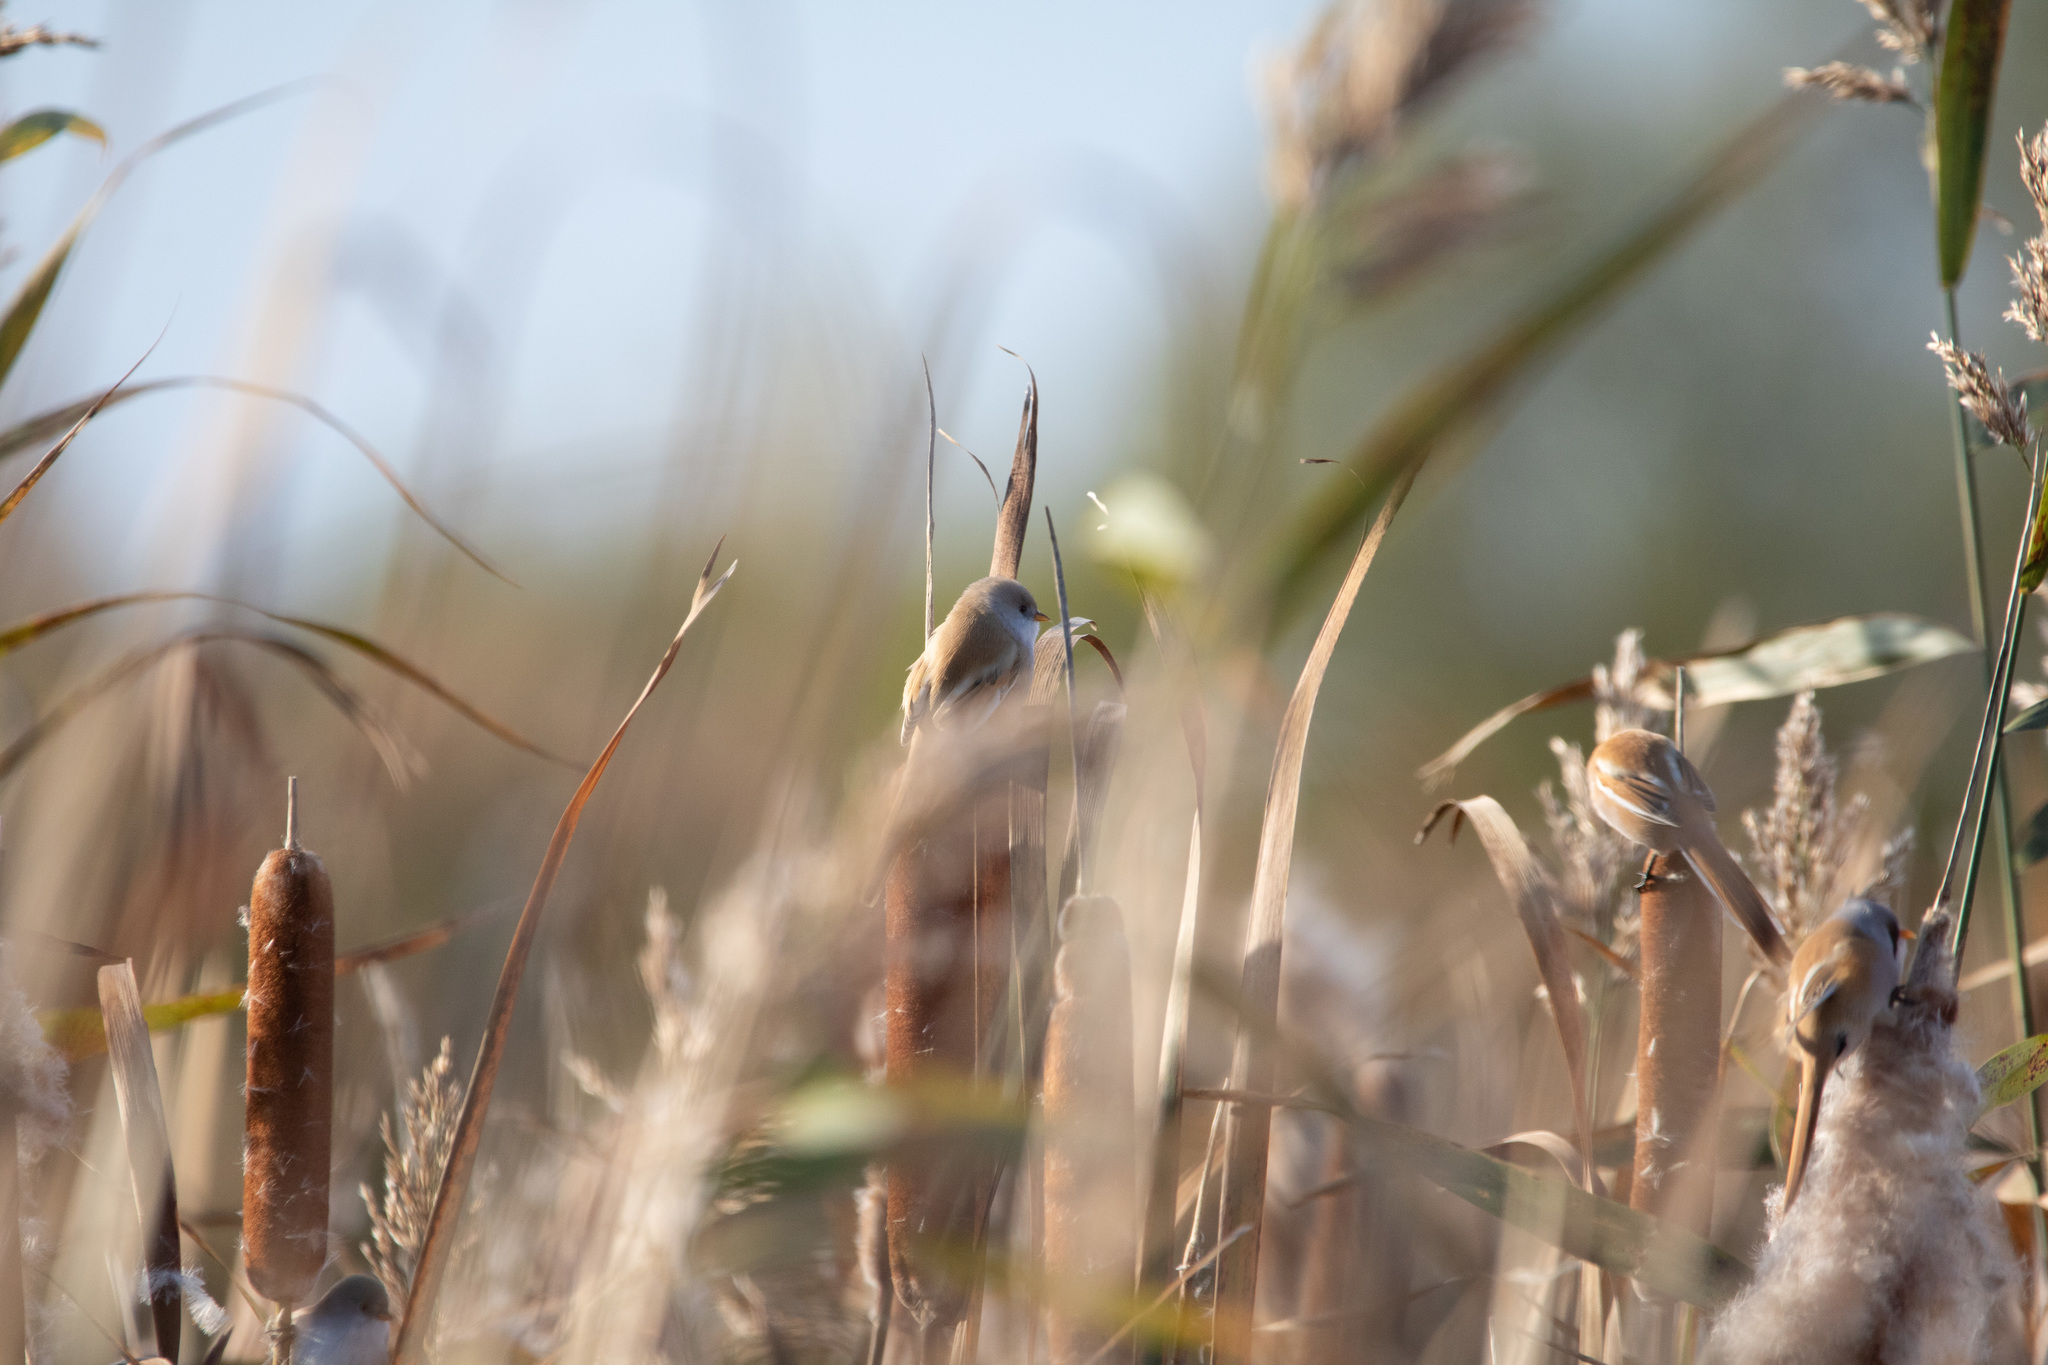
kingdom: Animalia
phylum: Chordata
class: Aves
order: Passeriformes
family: Panuridae
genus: Panurus
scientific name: Panurus biarmicus
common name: Bearded reedling
